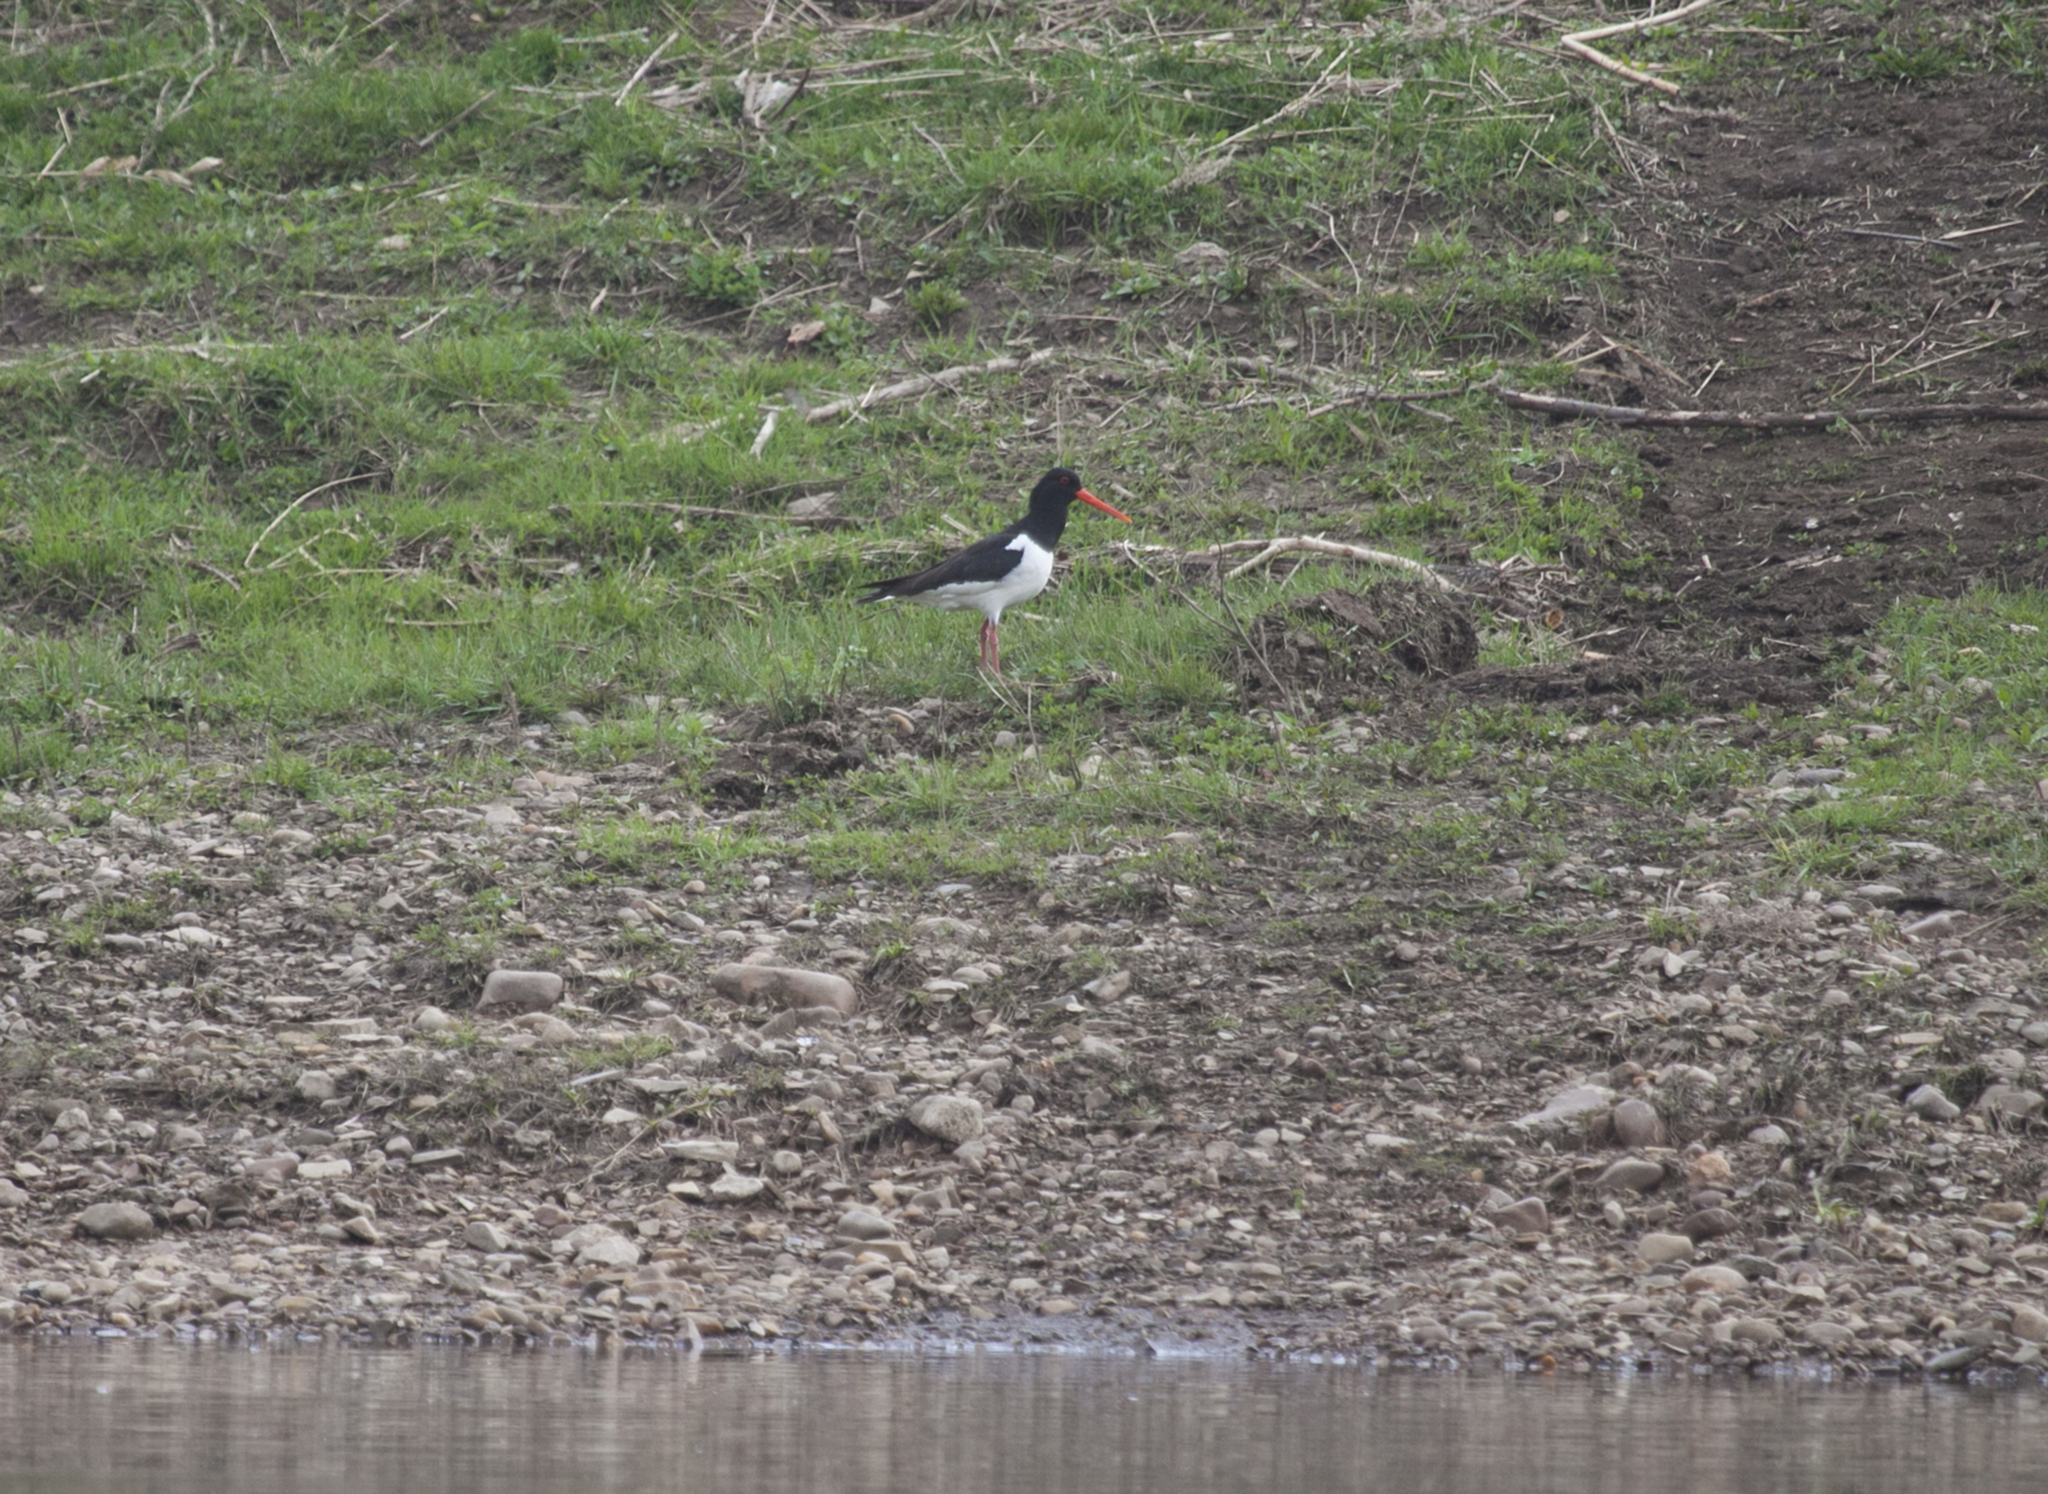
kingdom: Animalia
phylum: Chordata
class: Aves
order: Charadriiformes
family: Haematopodidae
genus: Haematopus
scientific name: Haematopus ostralegus
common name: Eurasian oystercatcher
